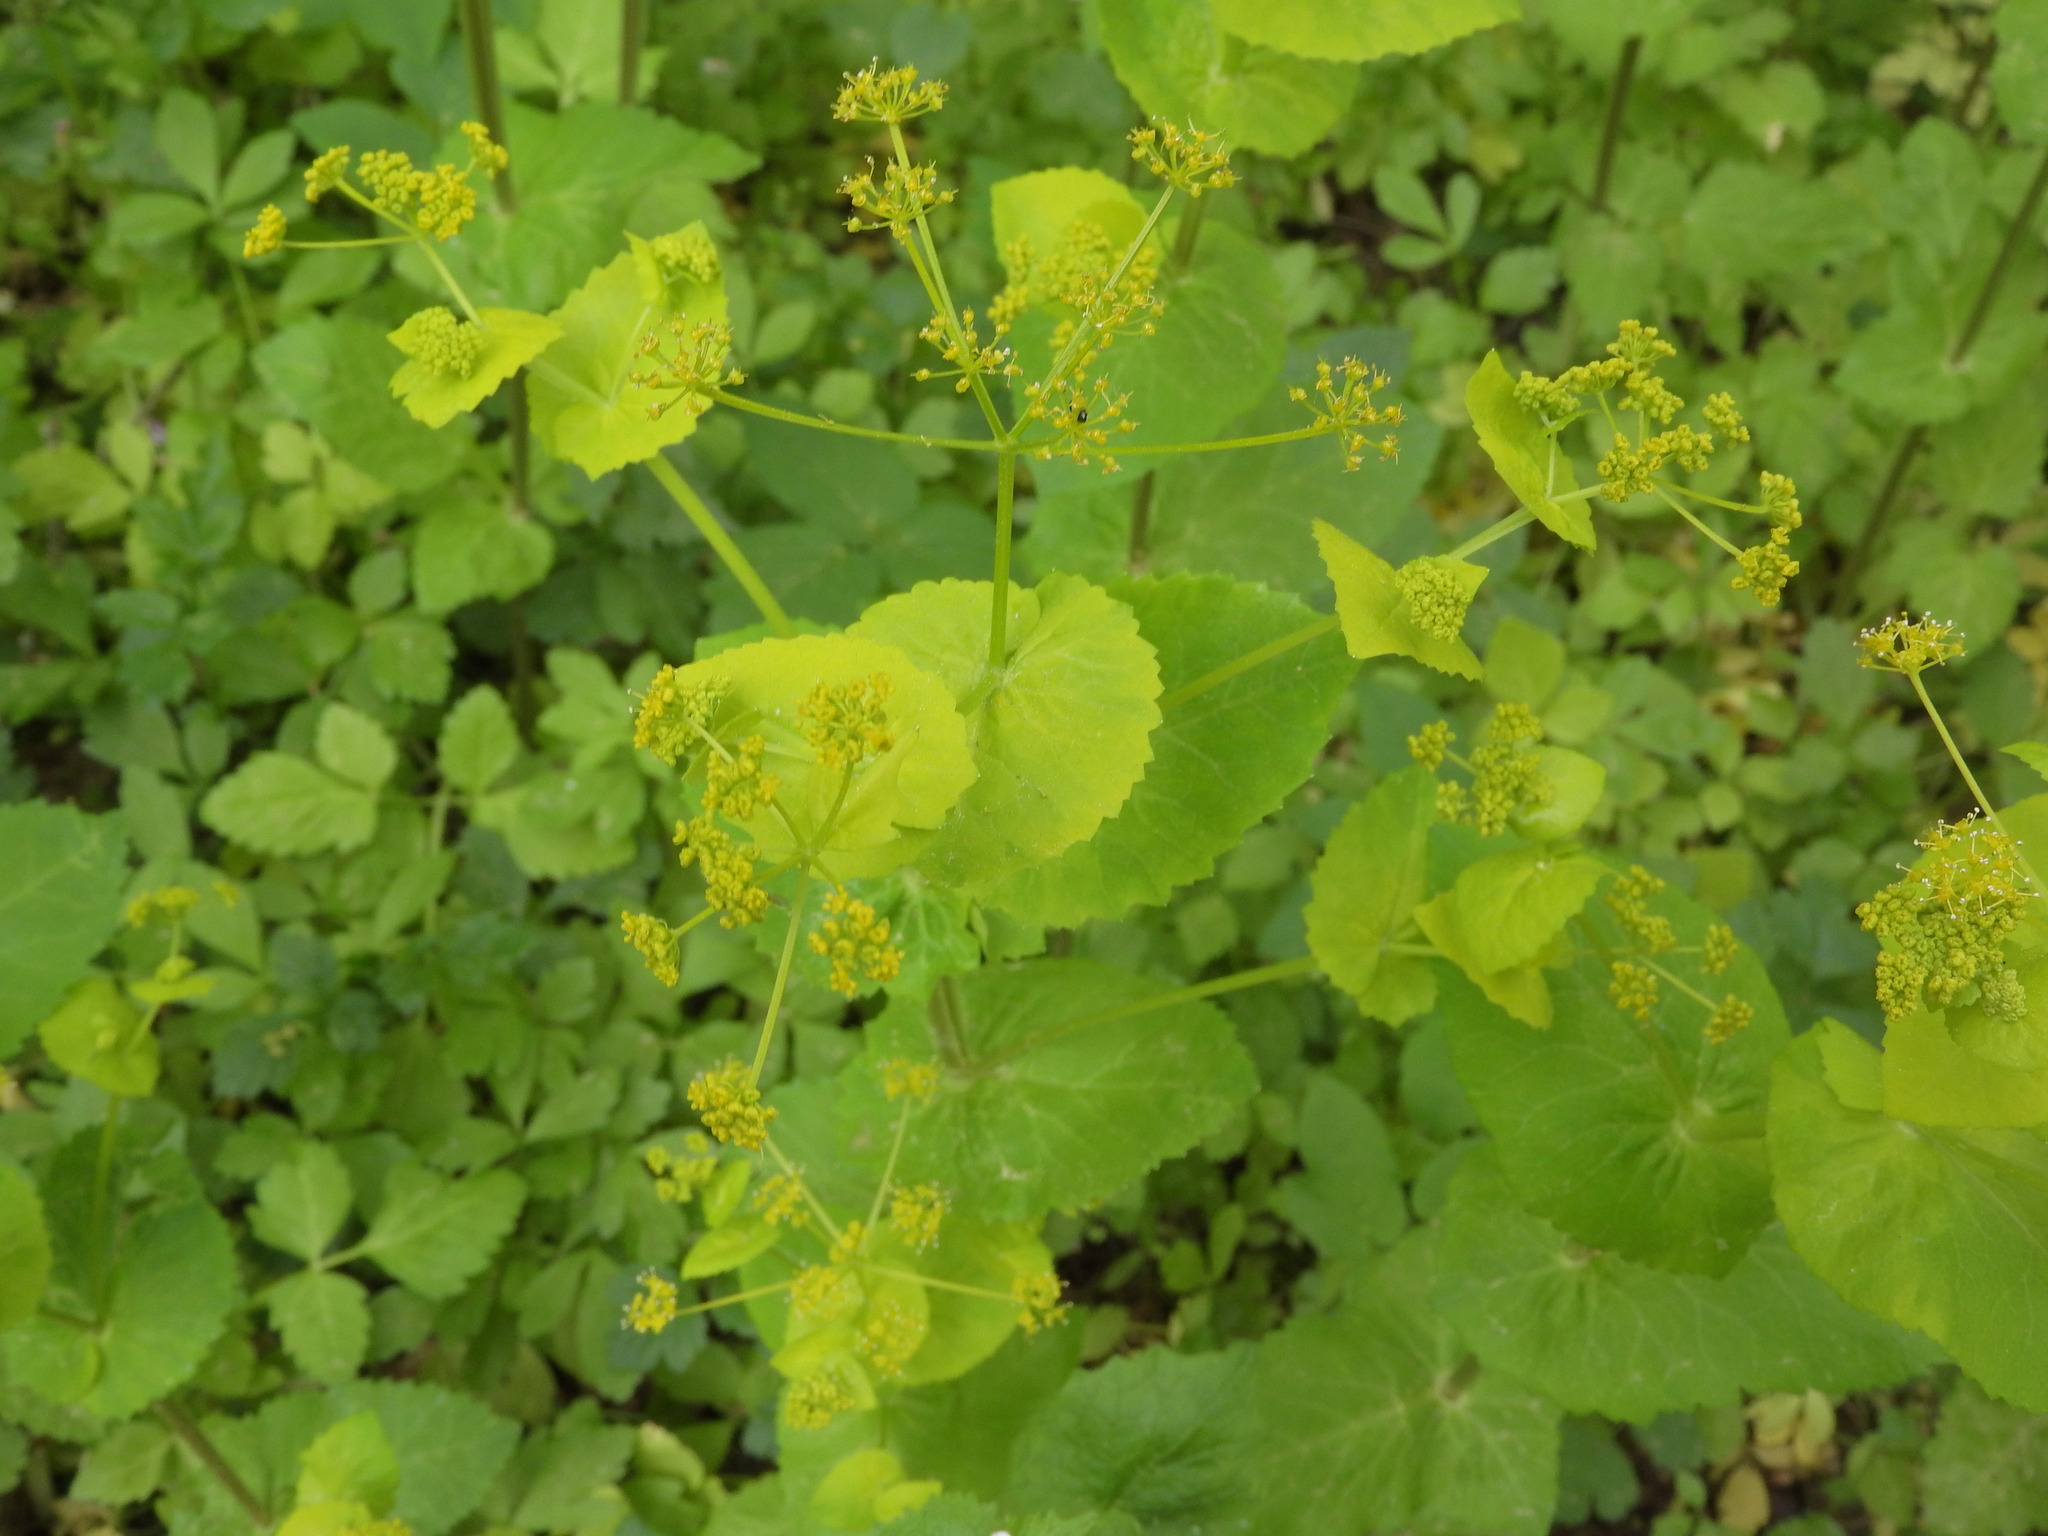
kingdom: Plantae
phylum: Tracheophyta
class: Magnoliopsida
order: Apiales
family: Apiaceae
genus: Smyrnium
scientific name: Smyrnium perfoliatum
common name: Perfoliate alexanders
